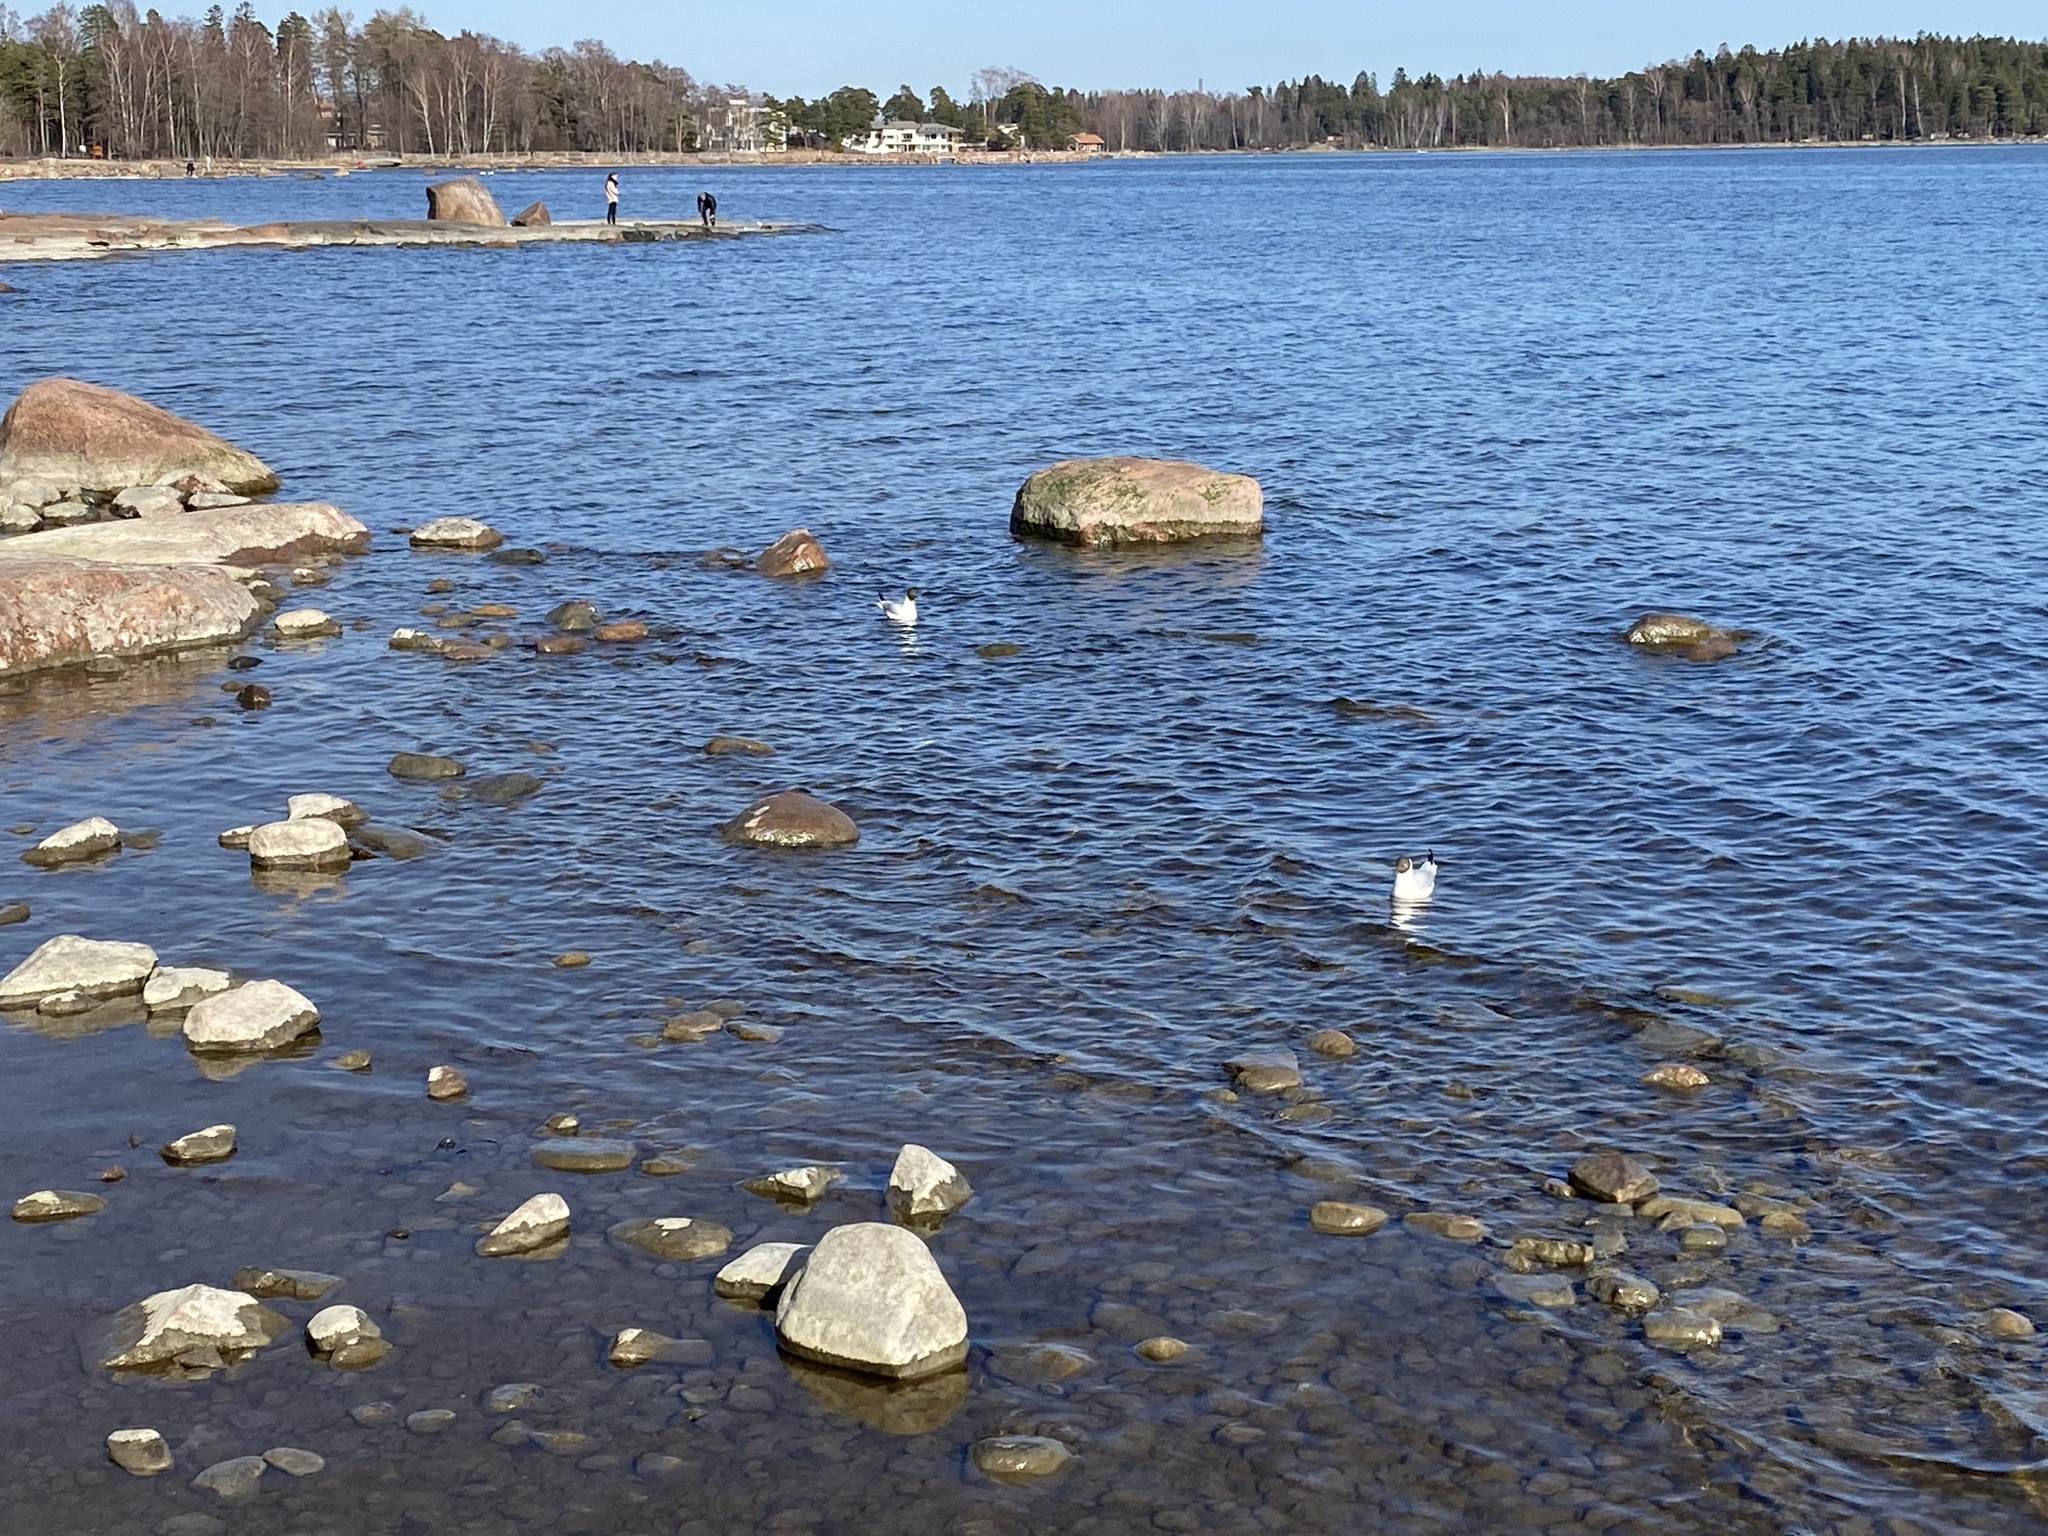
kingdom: Animalia
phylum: Chordata
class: Aves
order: Charadriiformes
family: Laridae
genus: Chroicocephalus
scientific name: Chroicocephalus ridibundus
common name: Black-headed gull
